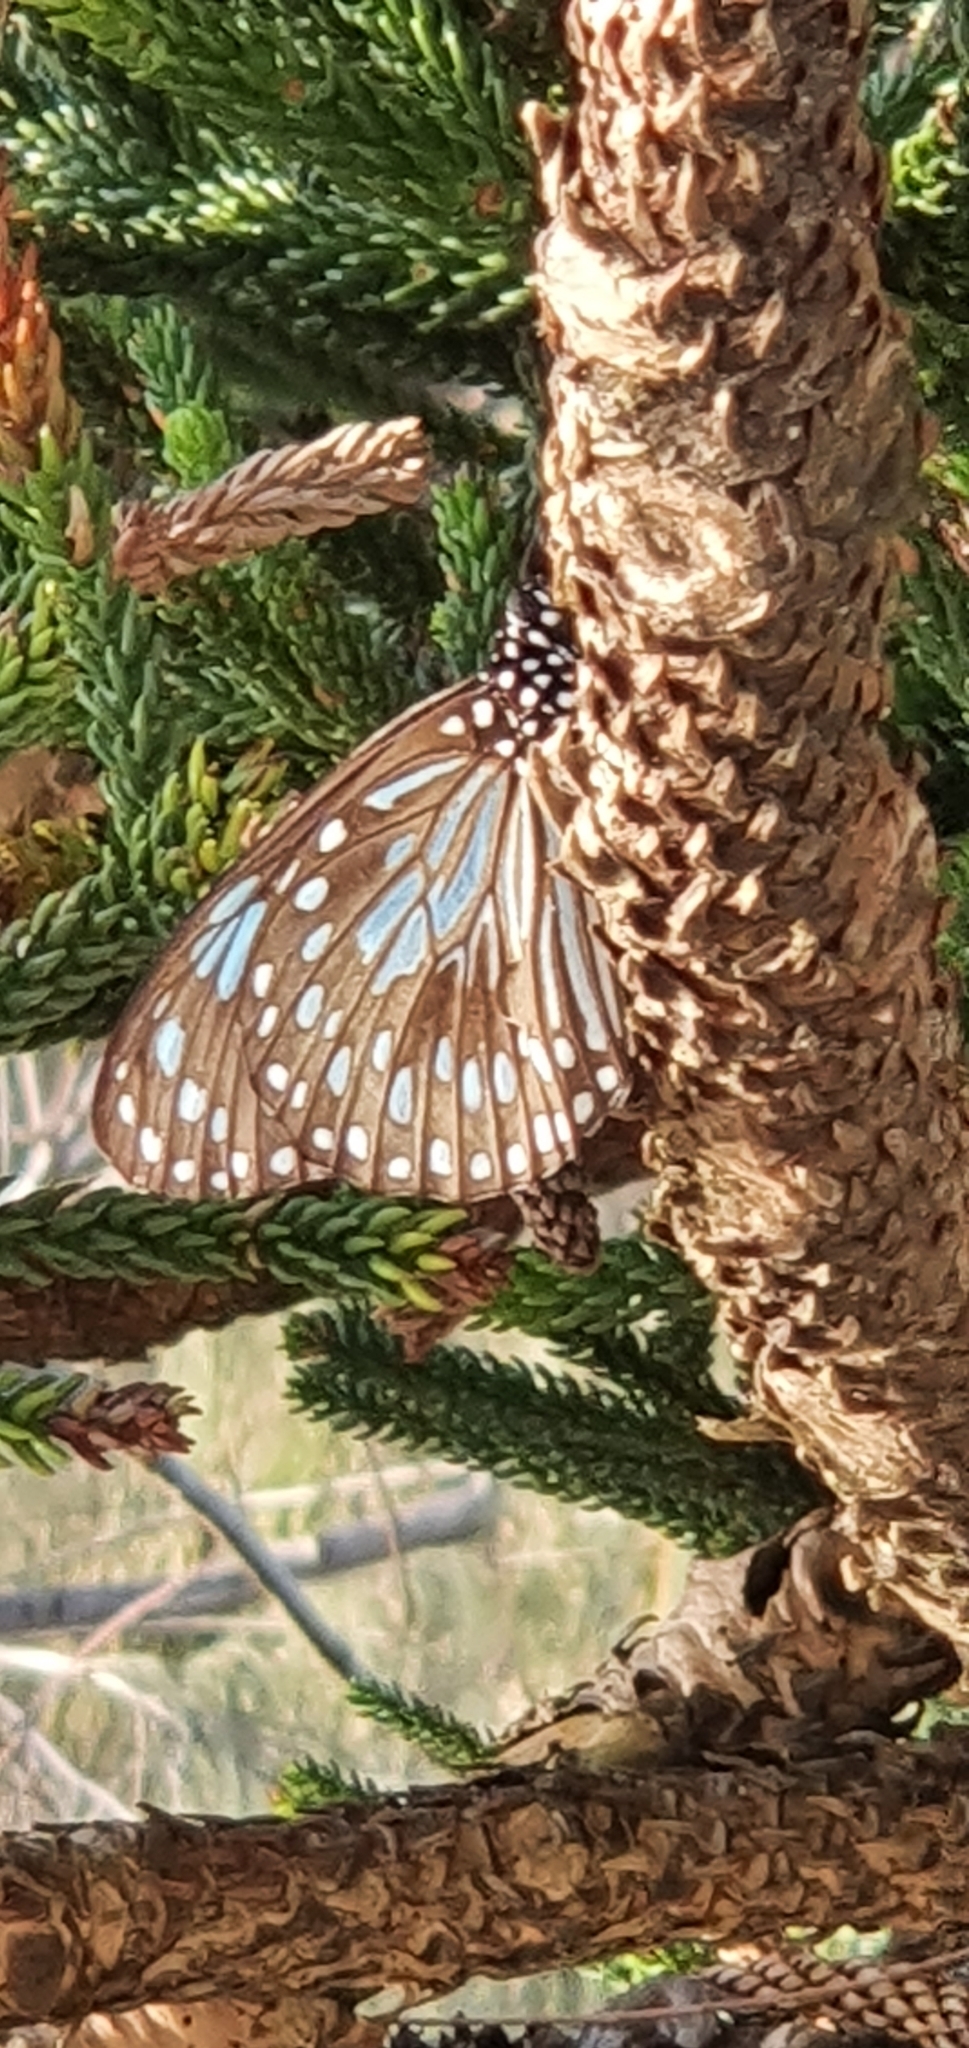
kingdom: Animalia
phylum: Arthropoda
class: Insecta
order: Lepidoptera
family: Nymphalidae
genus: Tirumala
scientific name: Tirumala hamata
